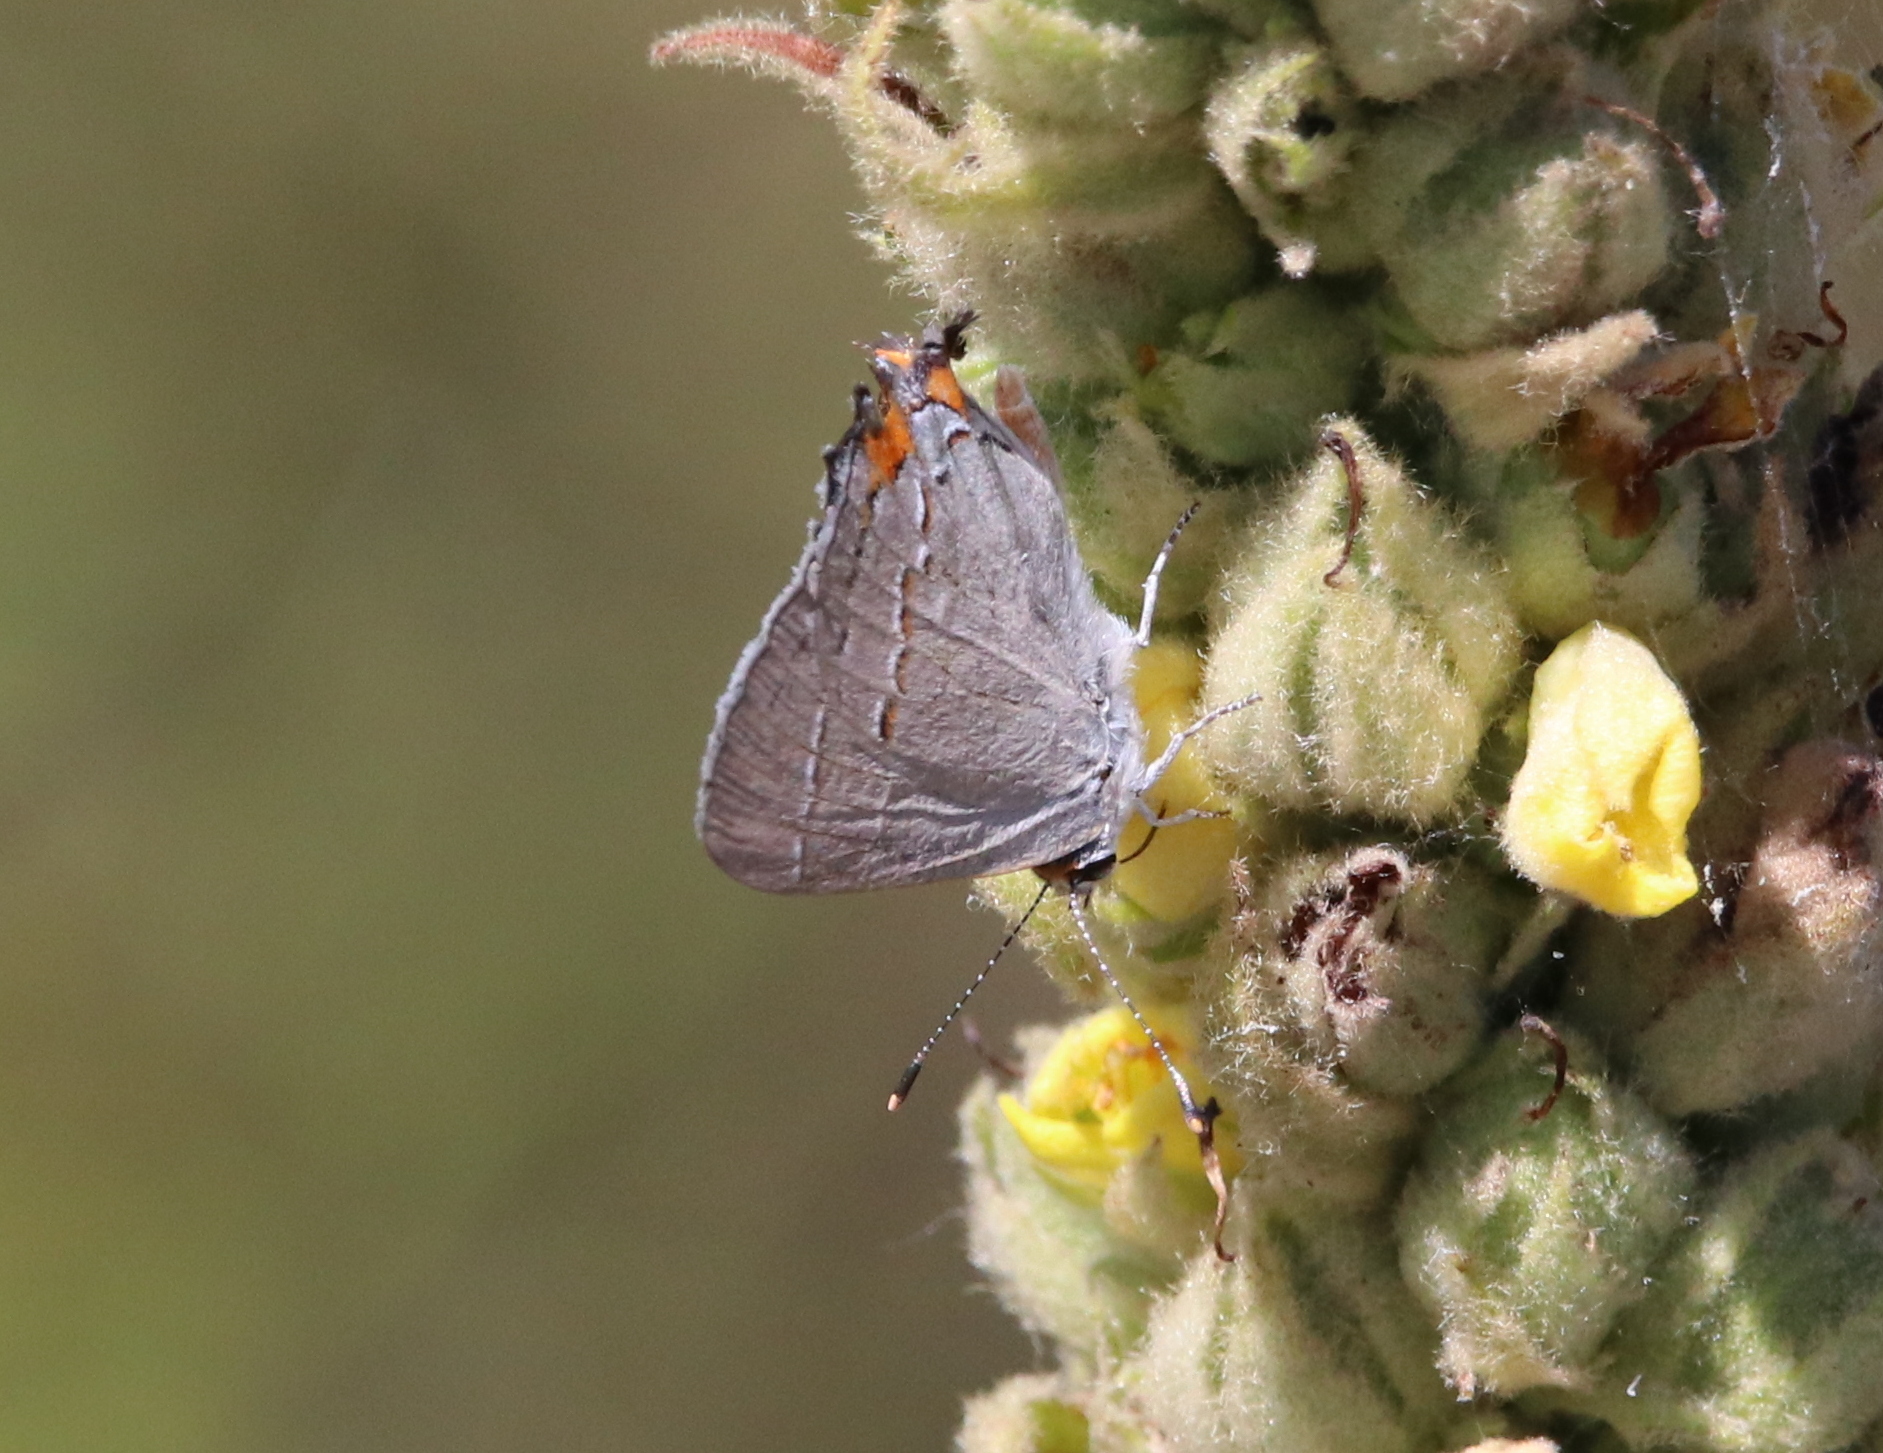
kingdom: Animalia
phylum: Arthropoda
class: Insecta
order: Lepidoptera
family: Lycaenidae
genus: Strymon
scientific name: Strymon melinus
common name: Gray hairstreak
